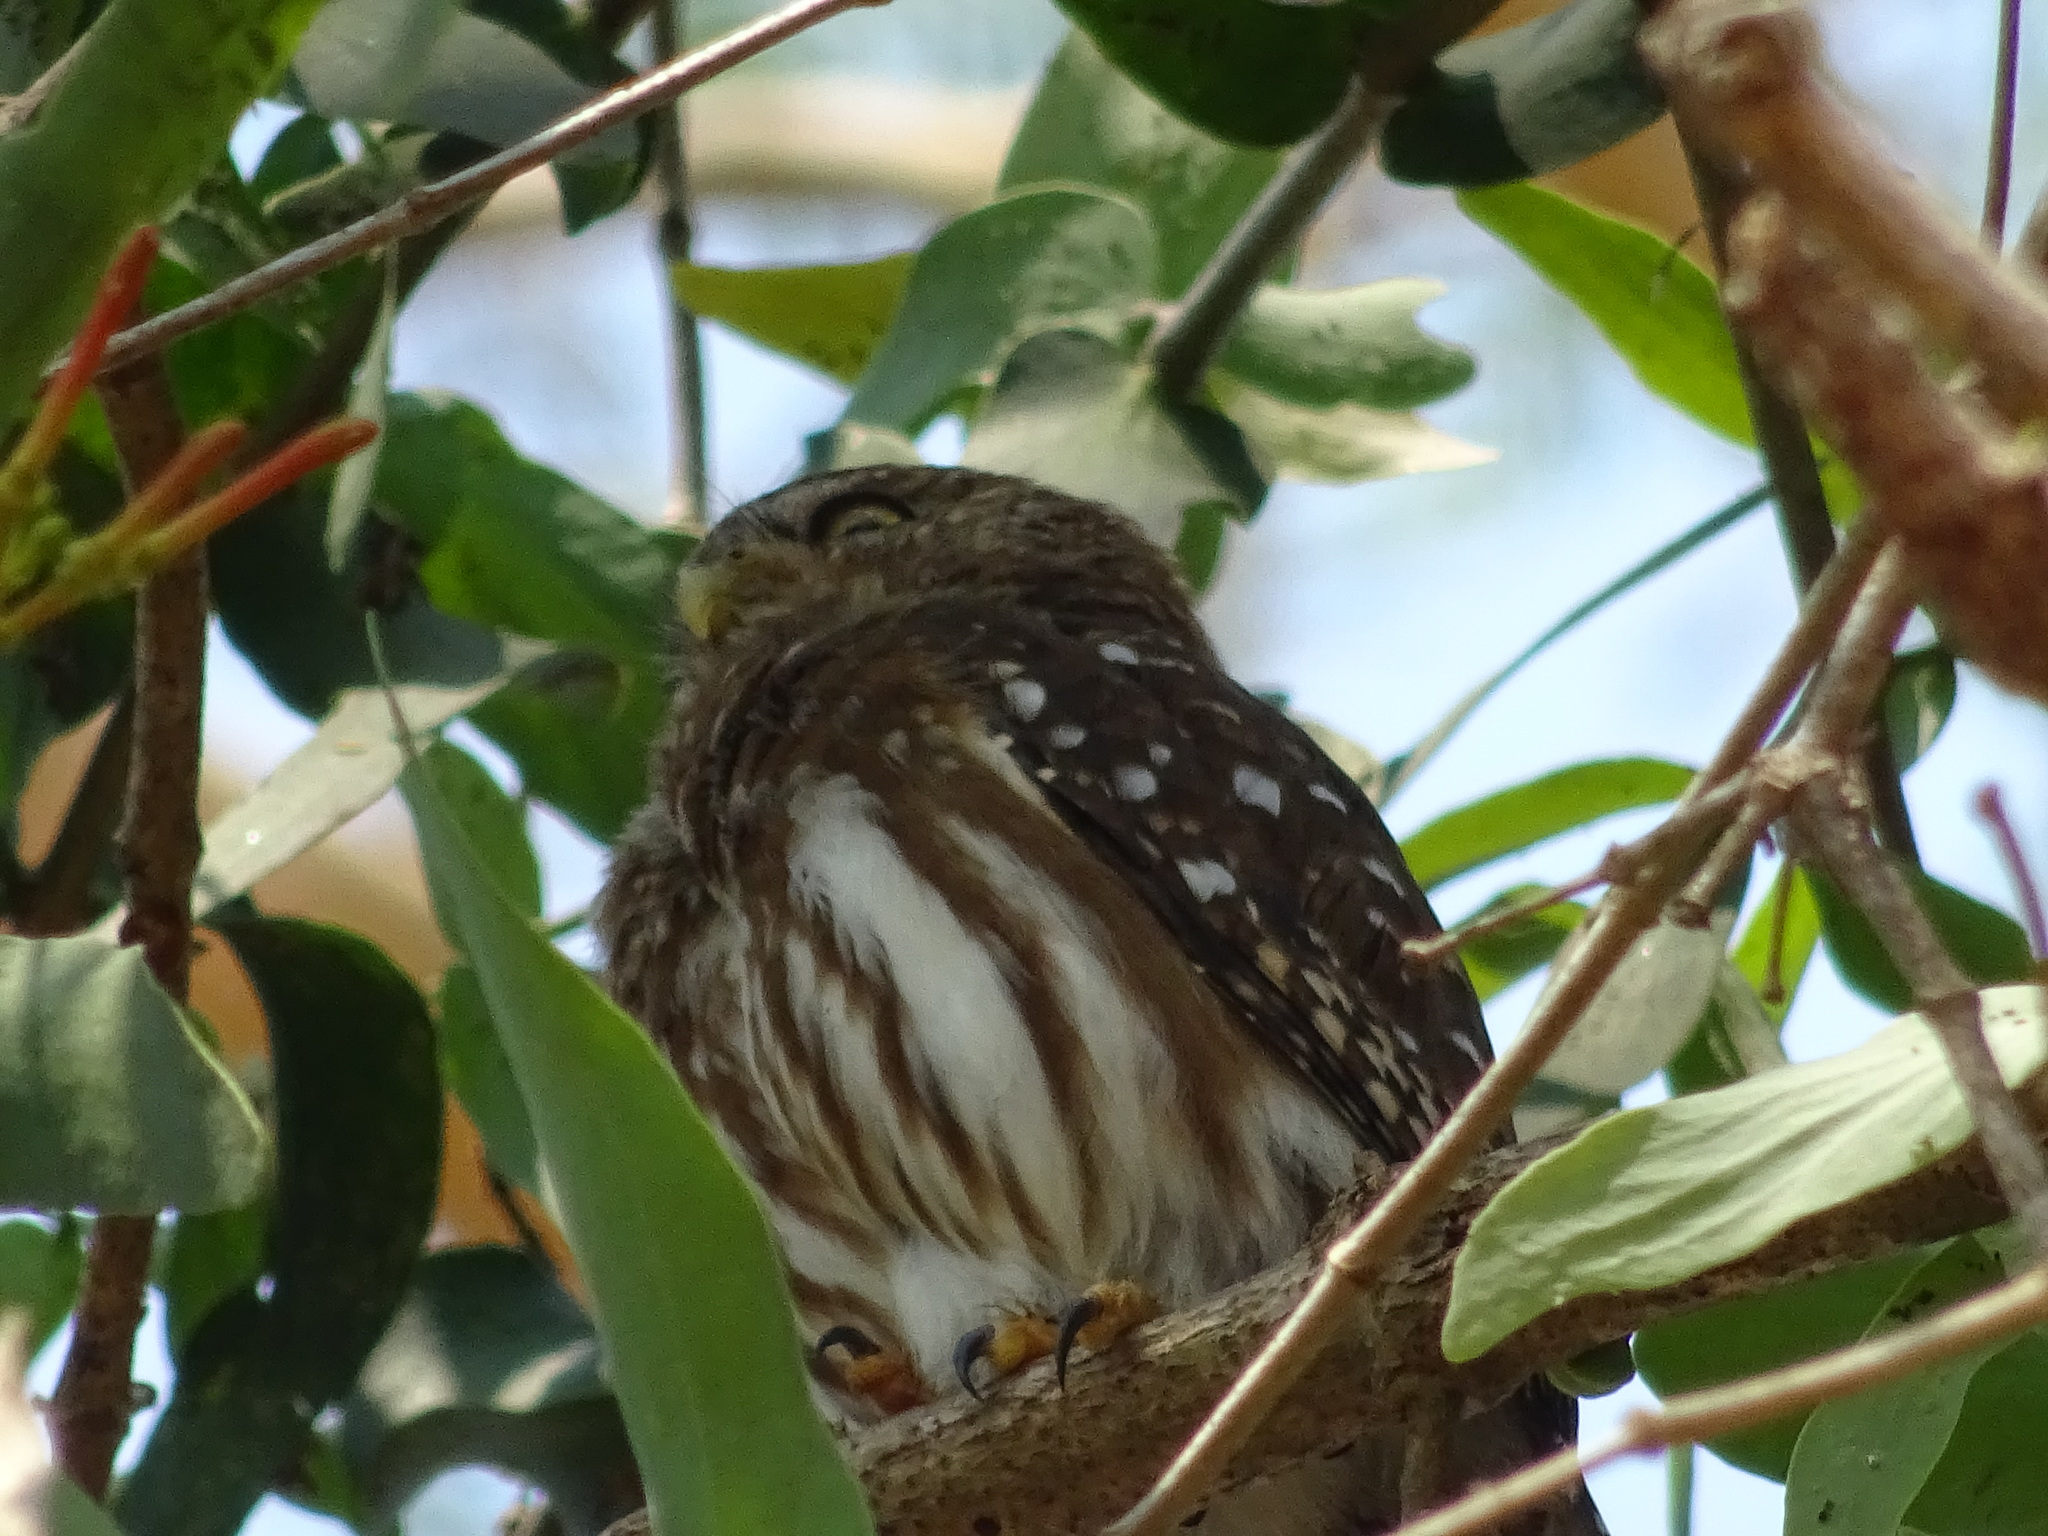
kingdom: Animalia
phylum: Chordata
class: Aves
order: Strigiformes
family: Strigidae
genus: Glaucidium
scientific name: Glaucidium brasilianum
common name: Ferruginous pygmy-owl
